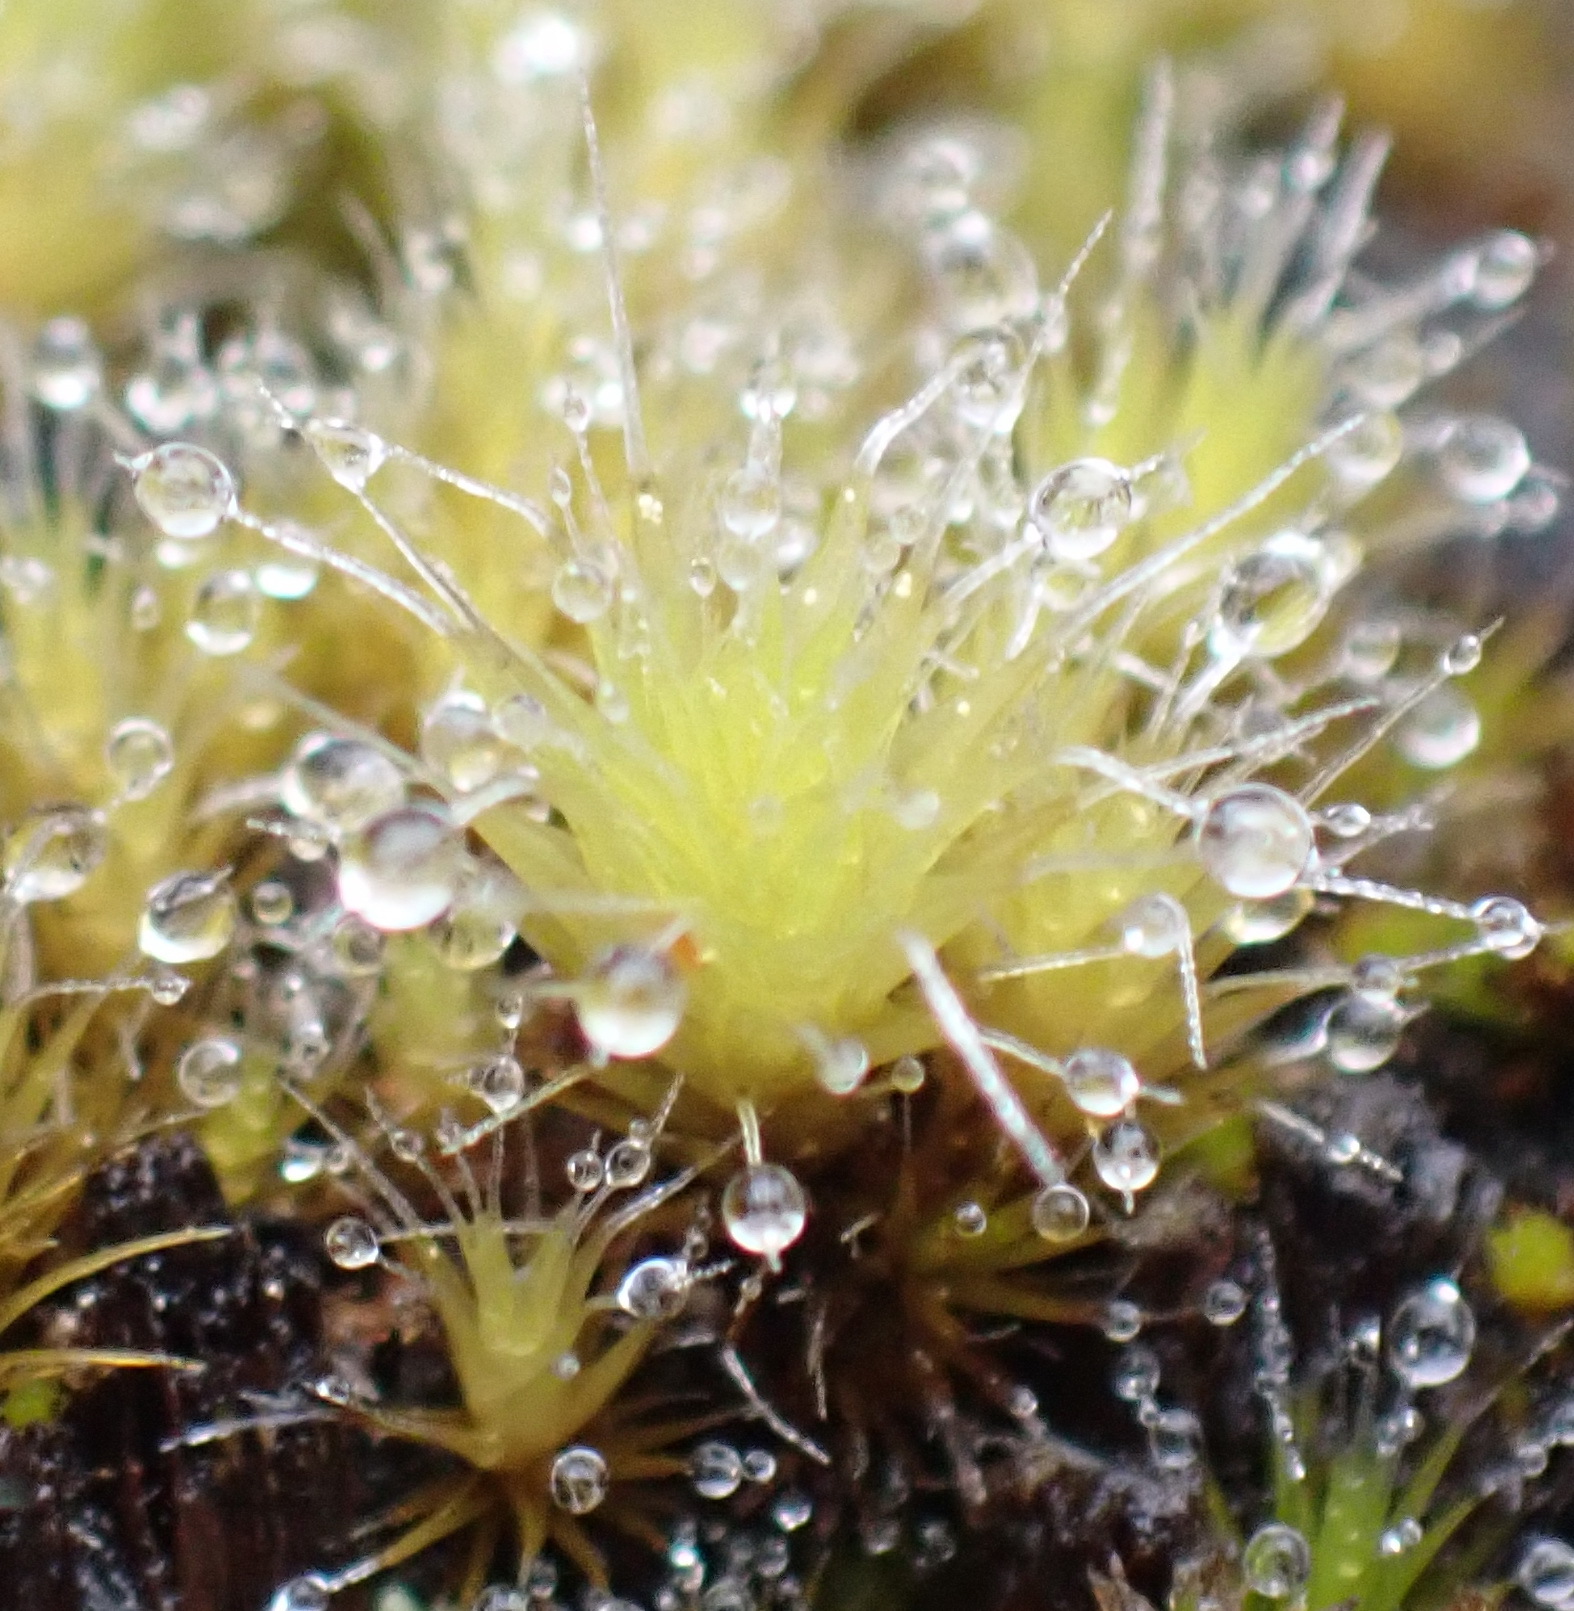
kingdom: Plantae
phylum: Bryophyta
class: Bryopsida
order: Dicranales
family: Leucobryaceae
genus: Campylopus
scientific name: Campylopus introflexus
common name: Heath star moss
